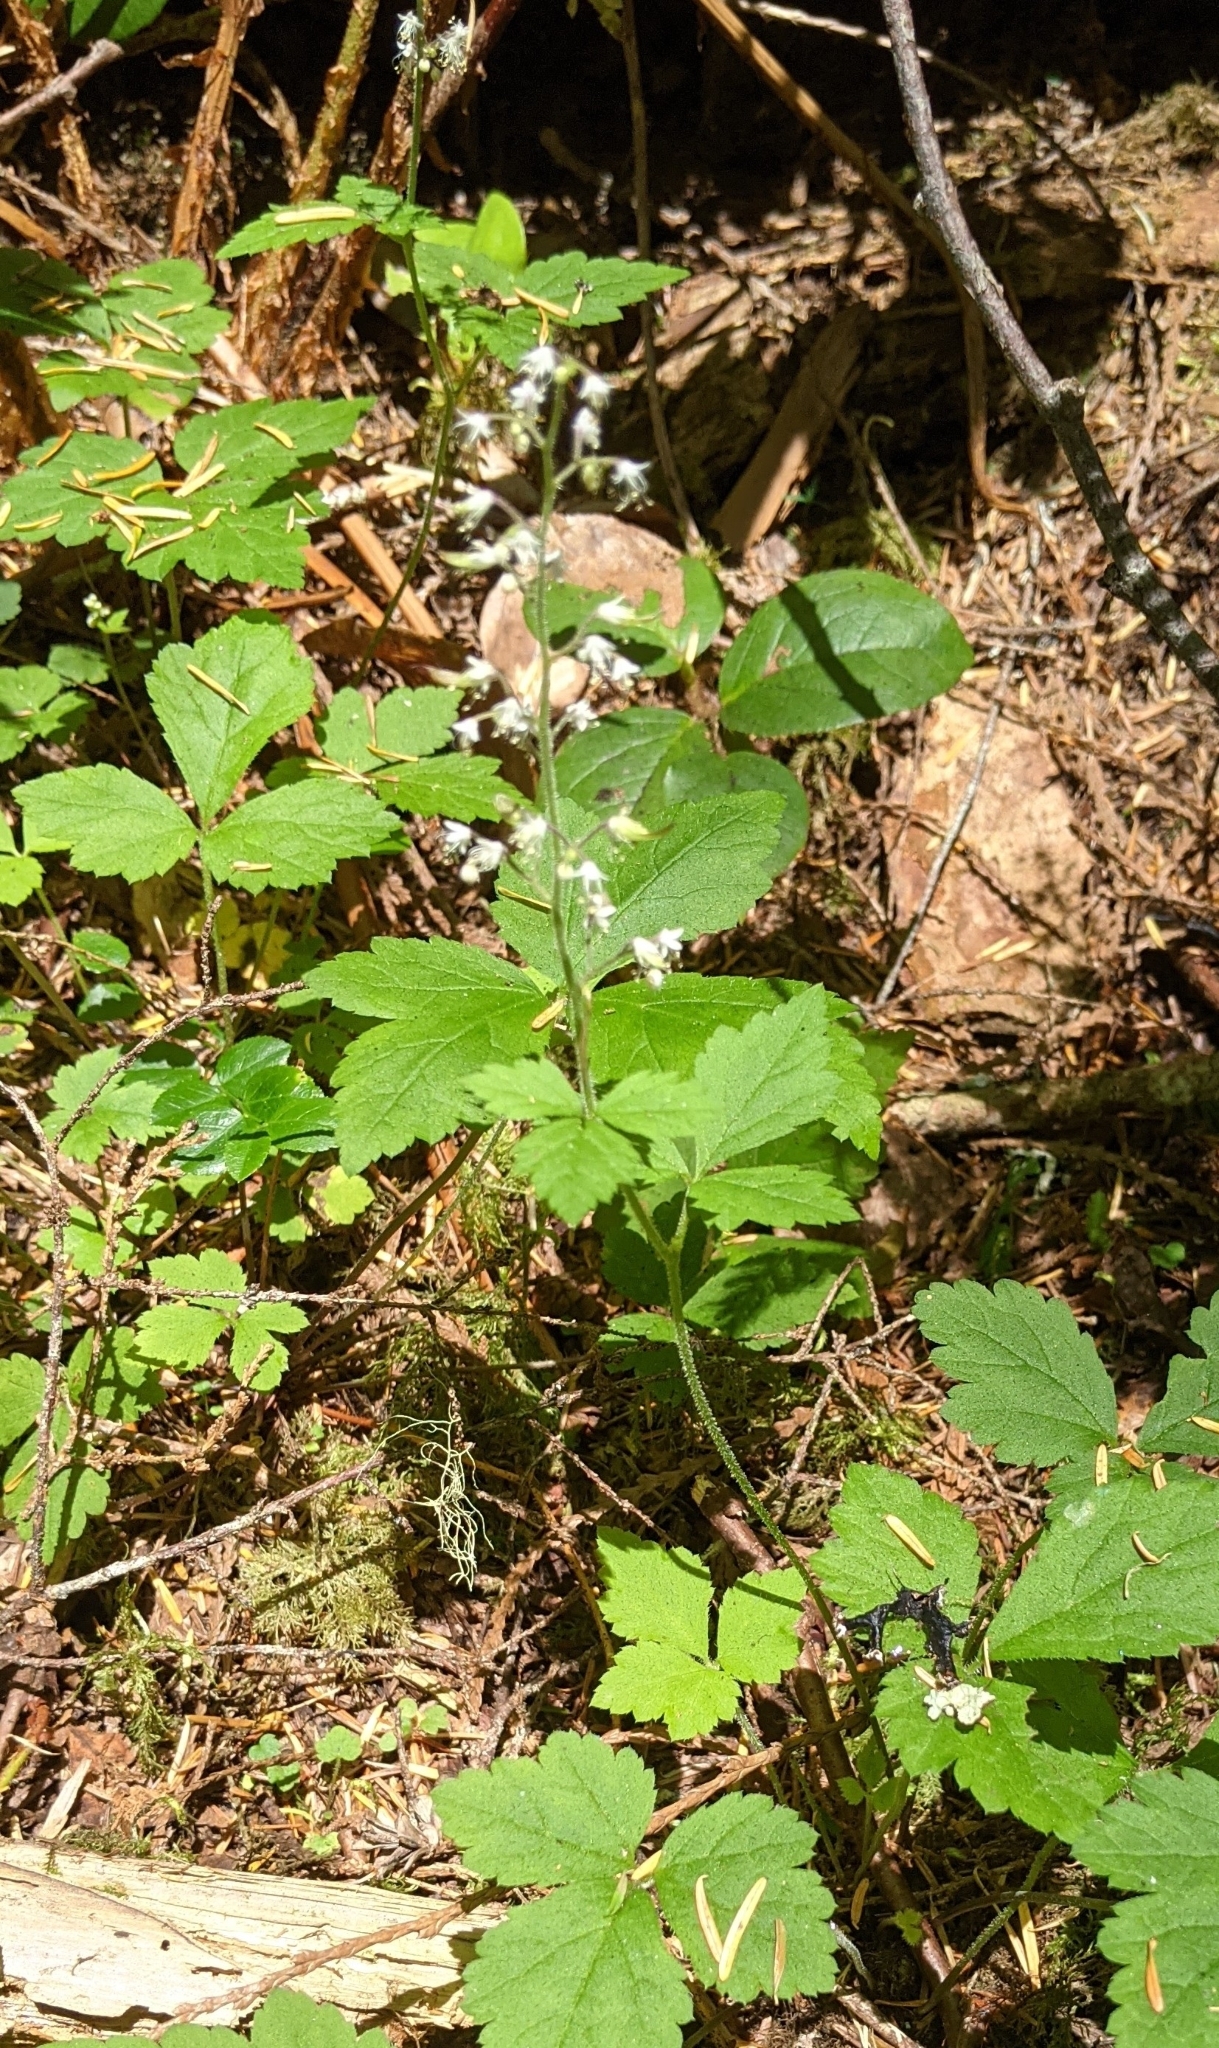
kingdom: Plantae
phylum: Tracheophyta
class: Magnoliopsida
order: Saxifragales
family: Saxifragaceae
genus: Tiarella
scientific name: Tiarella trifoliata
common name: Sugar-scoop
